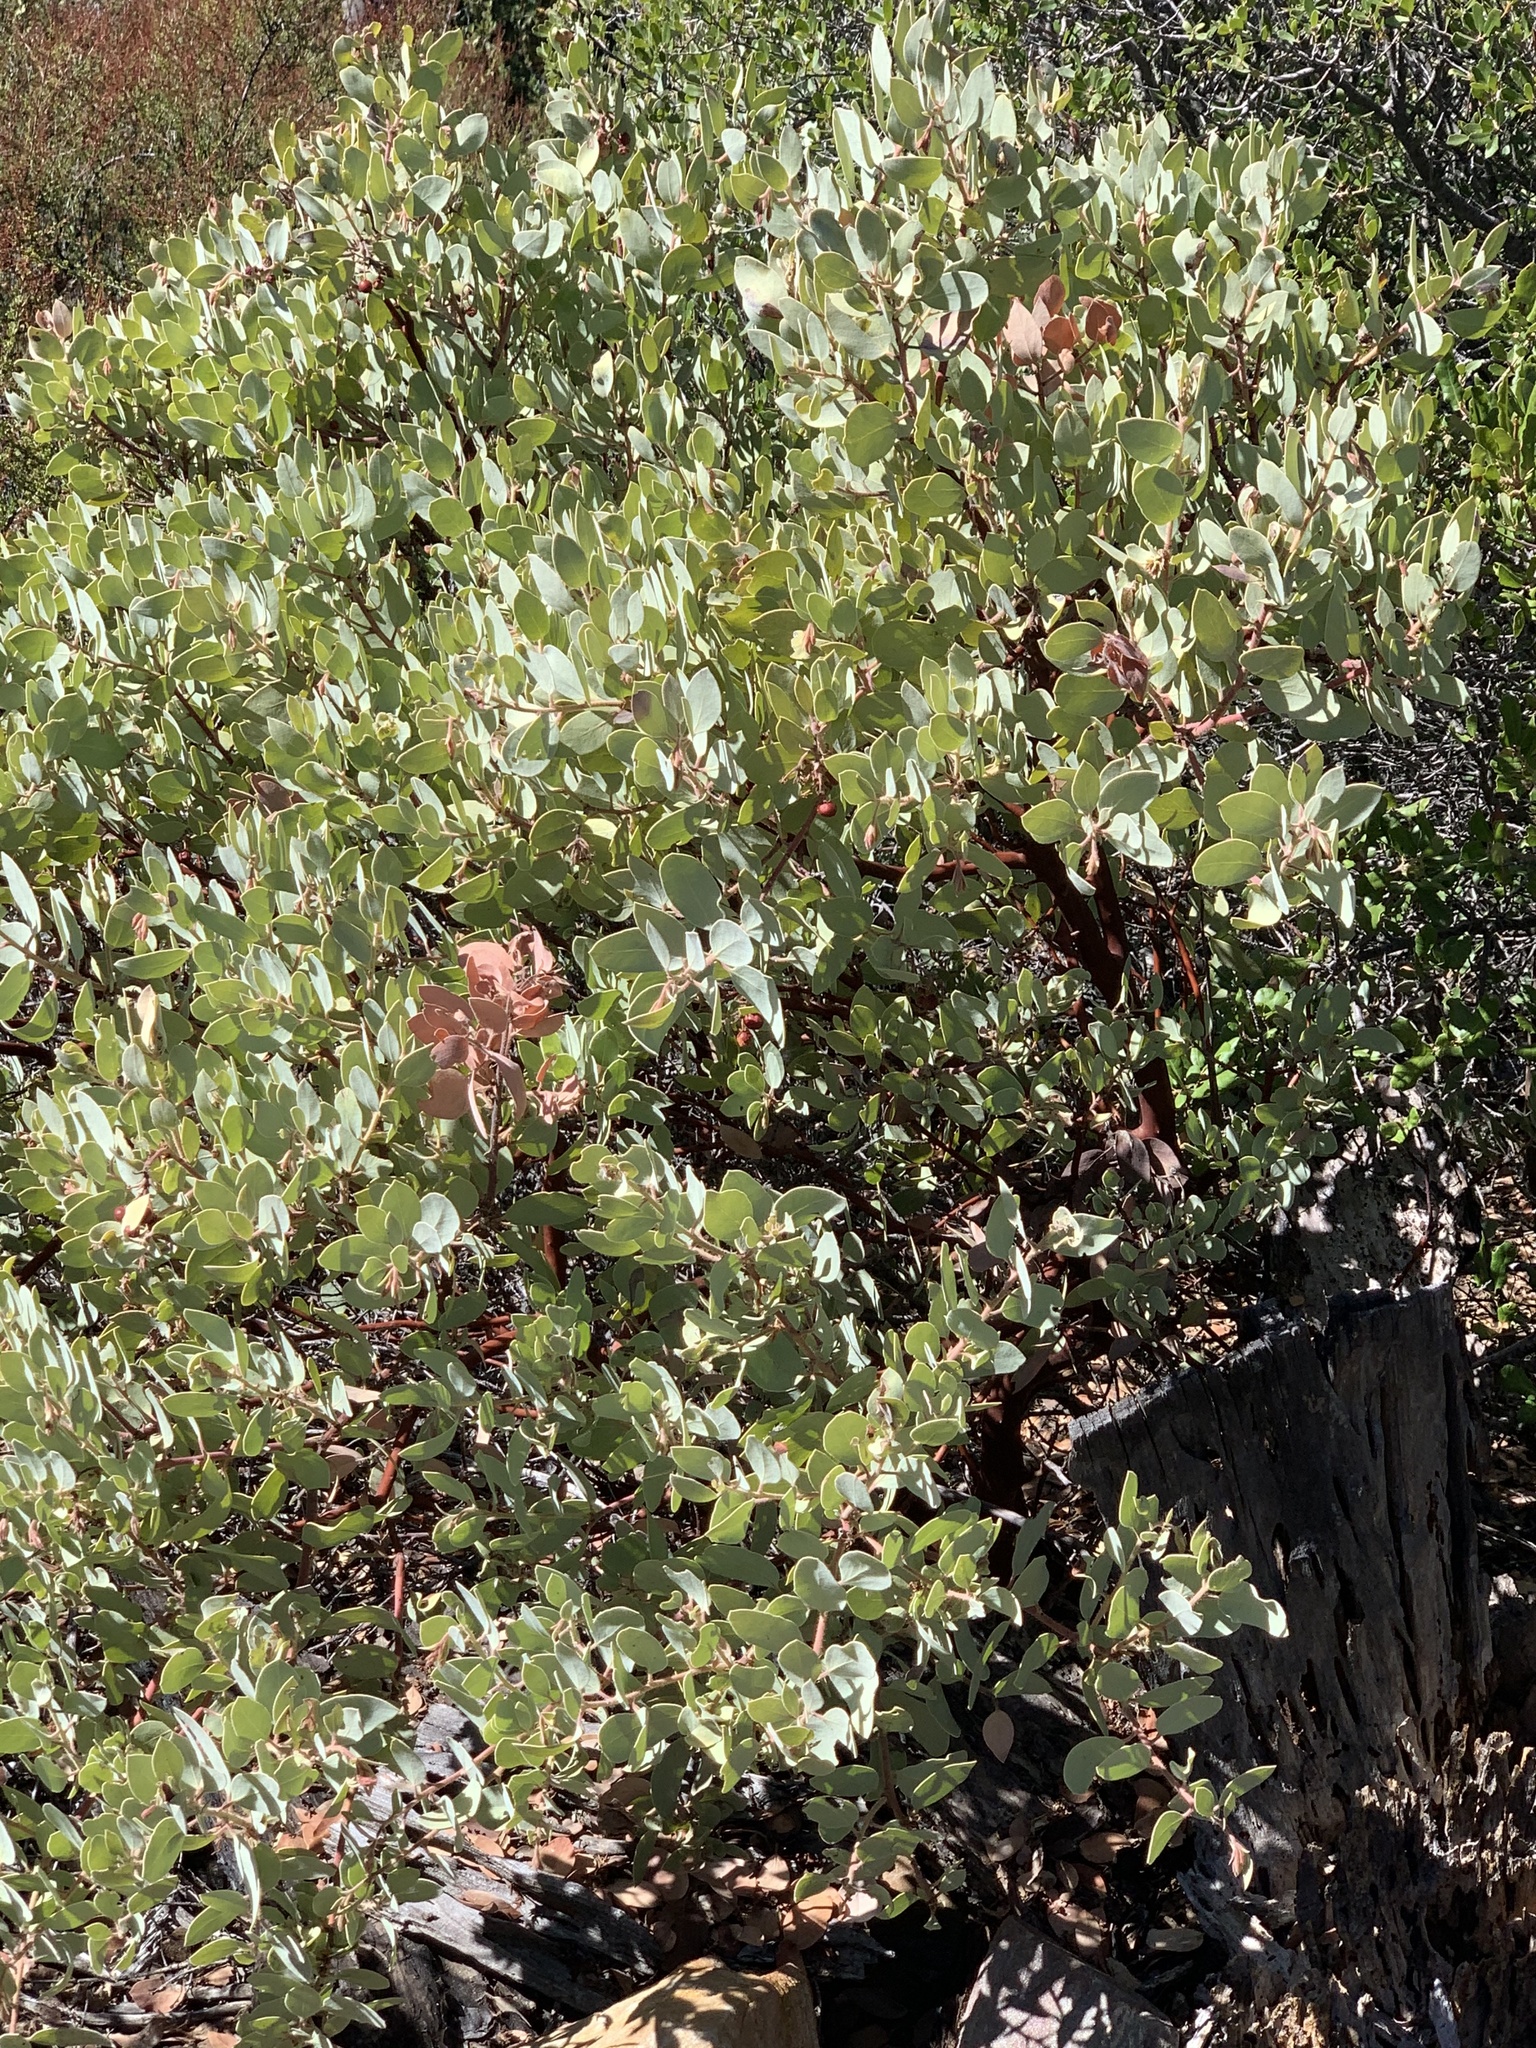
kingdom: Plantae
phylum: Tracheophyta
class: Magnoliopsida
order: Ericales
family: Ericaceae
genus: Arctostaphylos
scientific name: Arctostaphylos glandulosa
